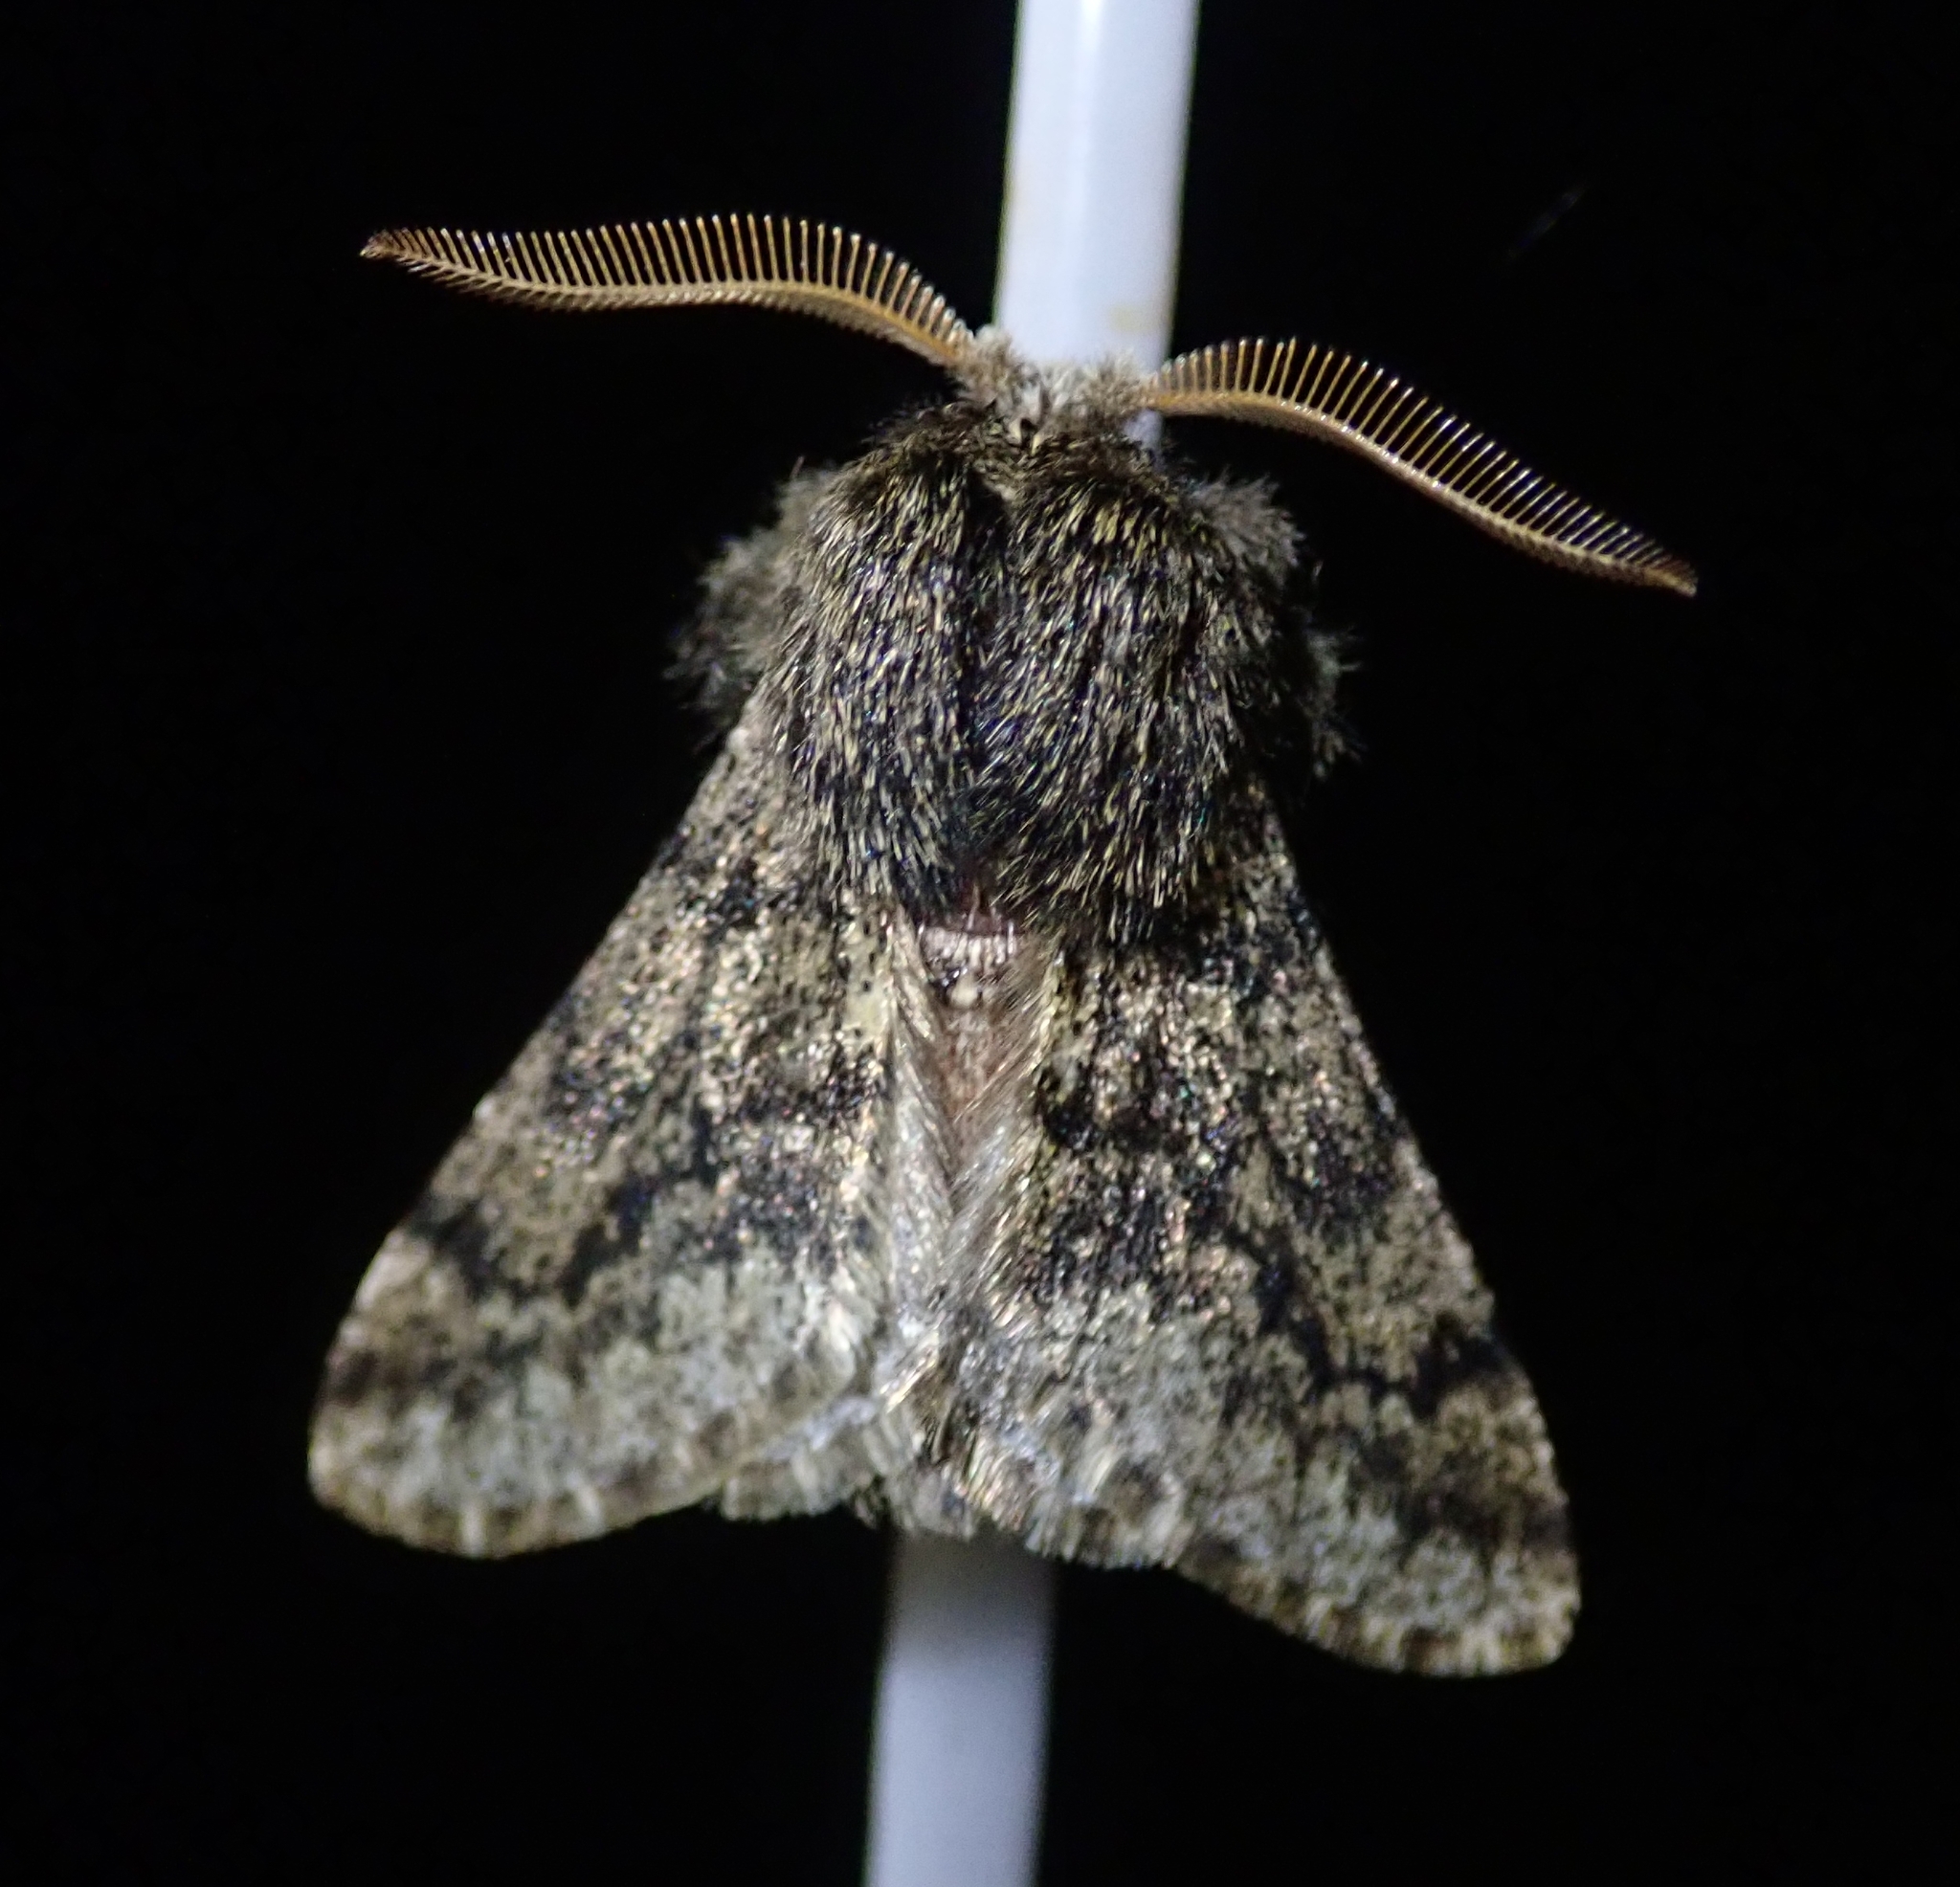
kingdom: Animalia
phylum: Arthropoda
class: Insecta
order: Lepidoptera
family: Geometridae
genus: Apocheima
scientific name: Apocheima hispidaria
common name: Small brindled beauty
